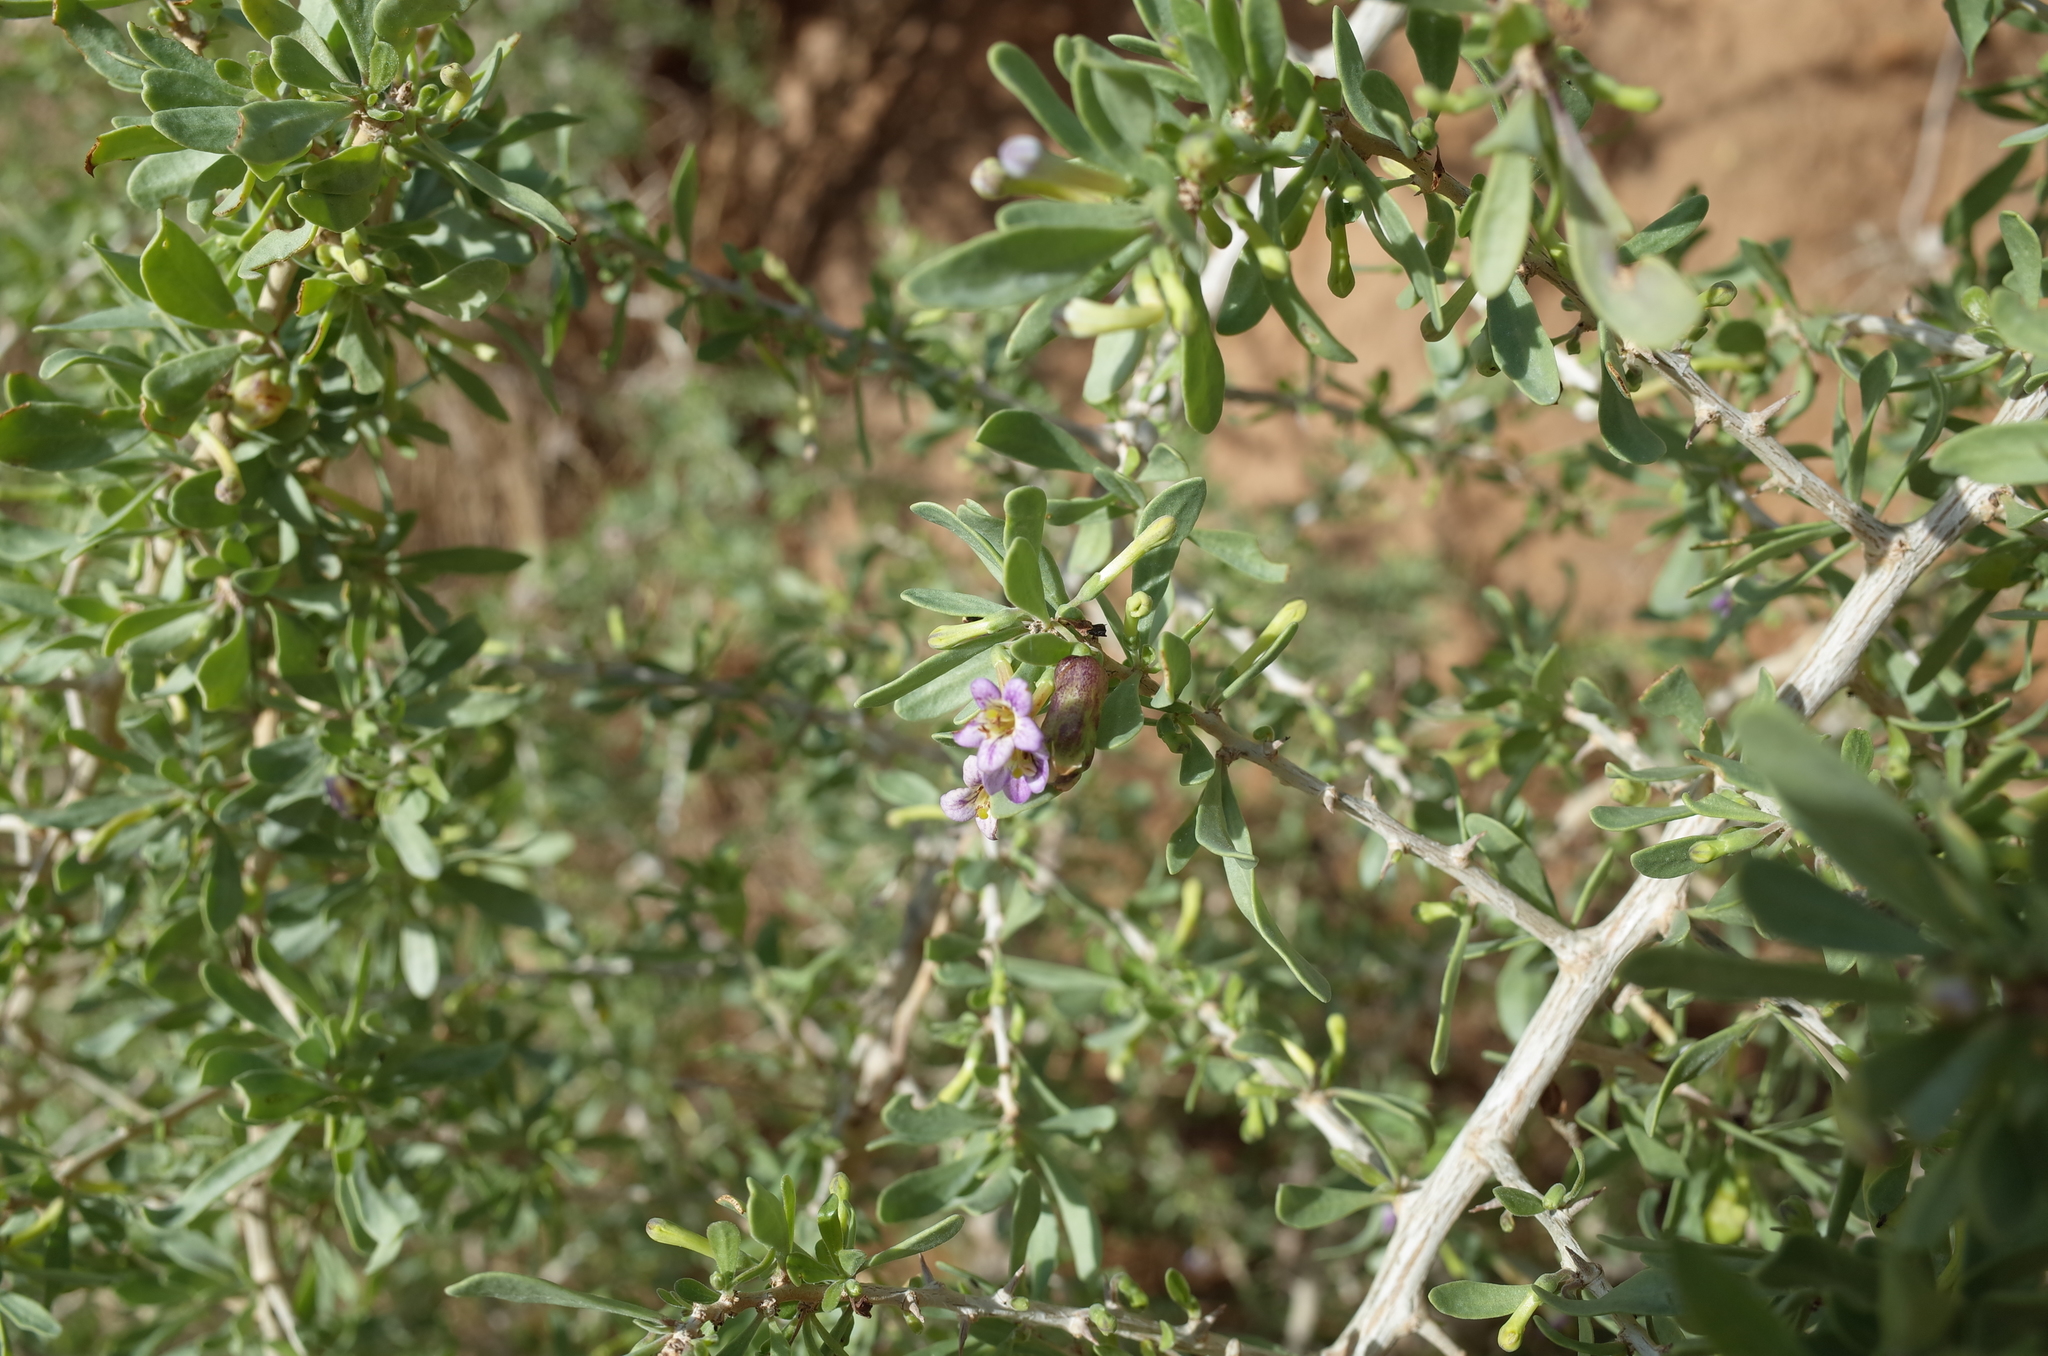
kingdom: Plantae
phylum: Tracheophyta
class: Magnoliopsida
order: Solanales
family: Solanaceae
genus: Lycium
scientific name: Lycium schweinfurthii
